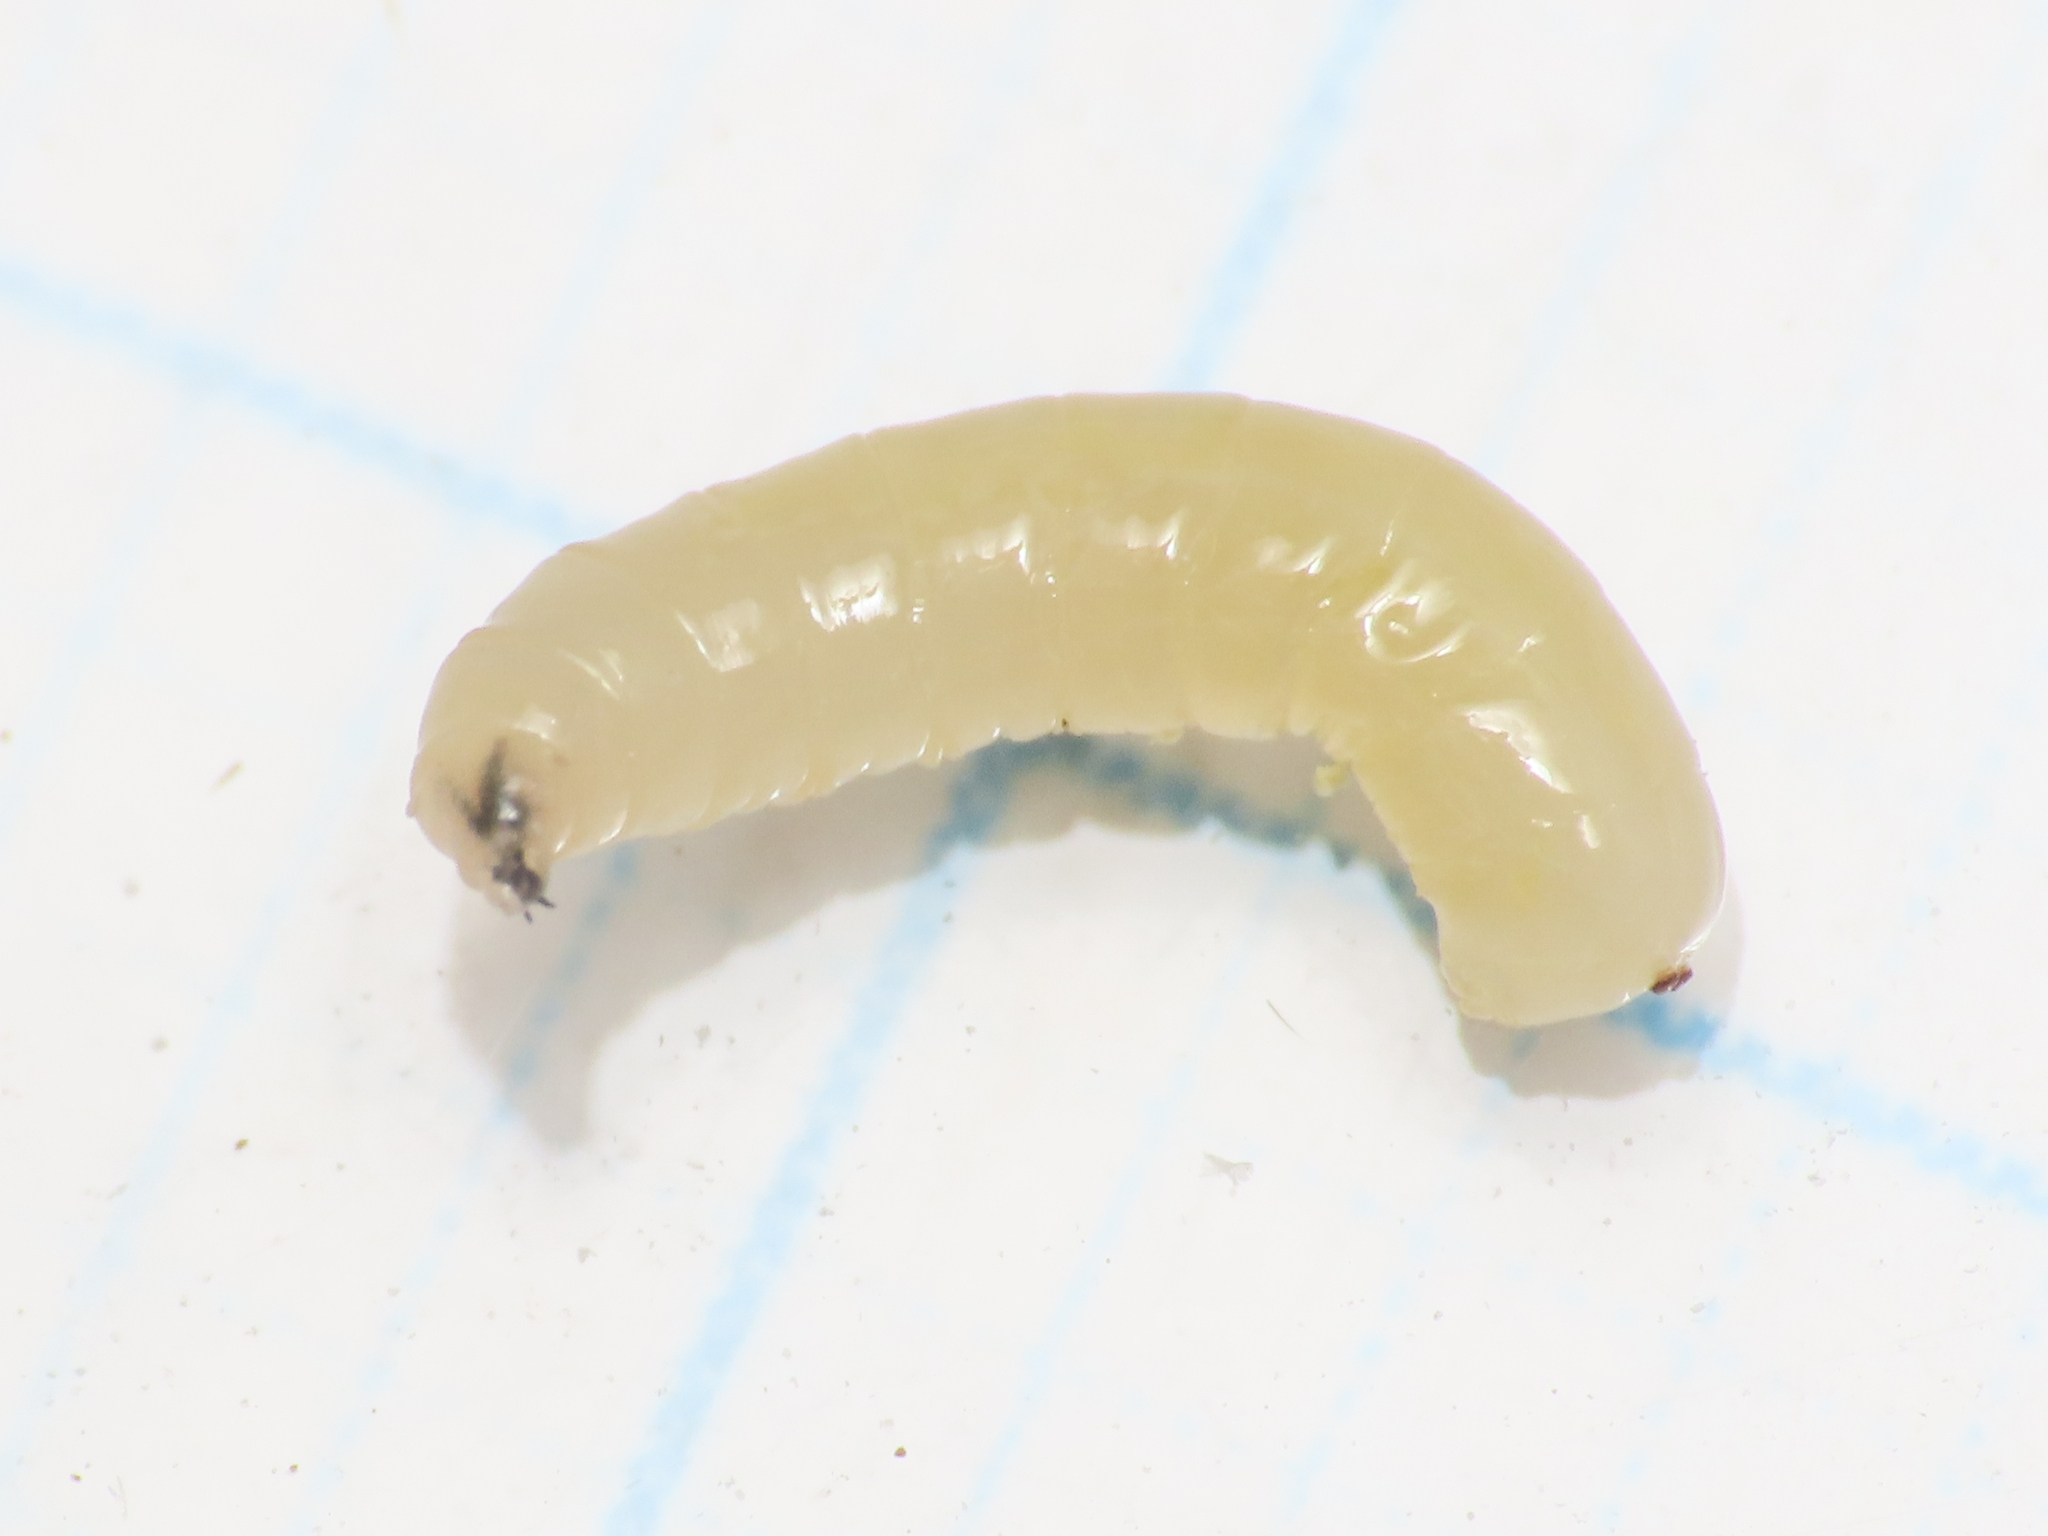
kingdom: Animalia
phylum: Arthropoda
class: Insecta
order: Diptera
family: Lonchaeidae
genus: Silba
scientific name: Silba adipata
